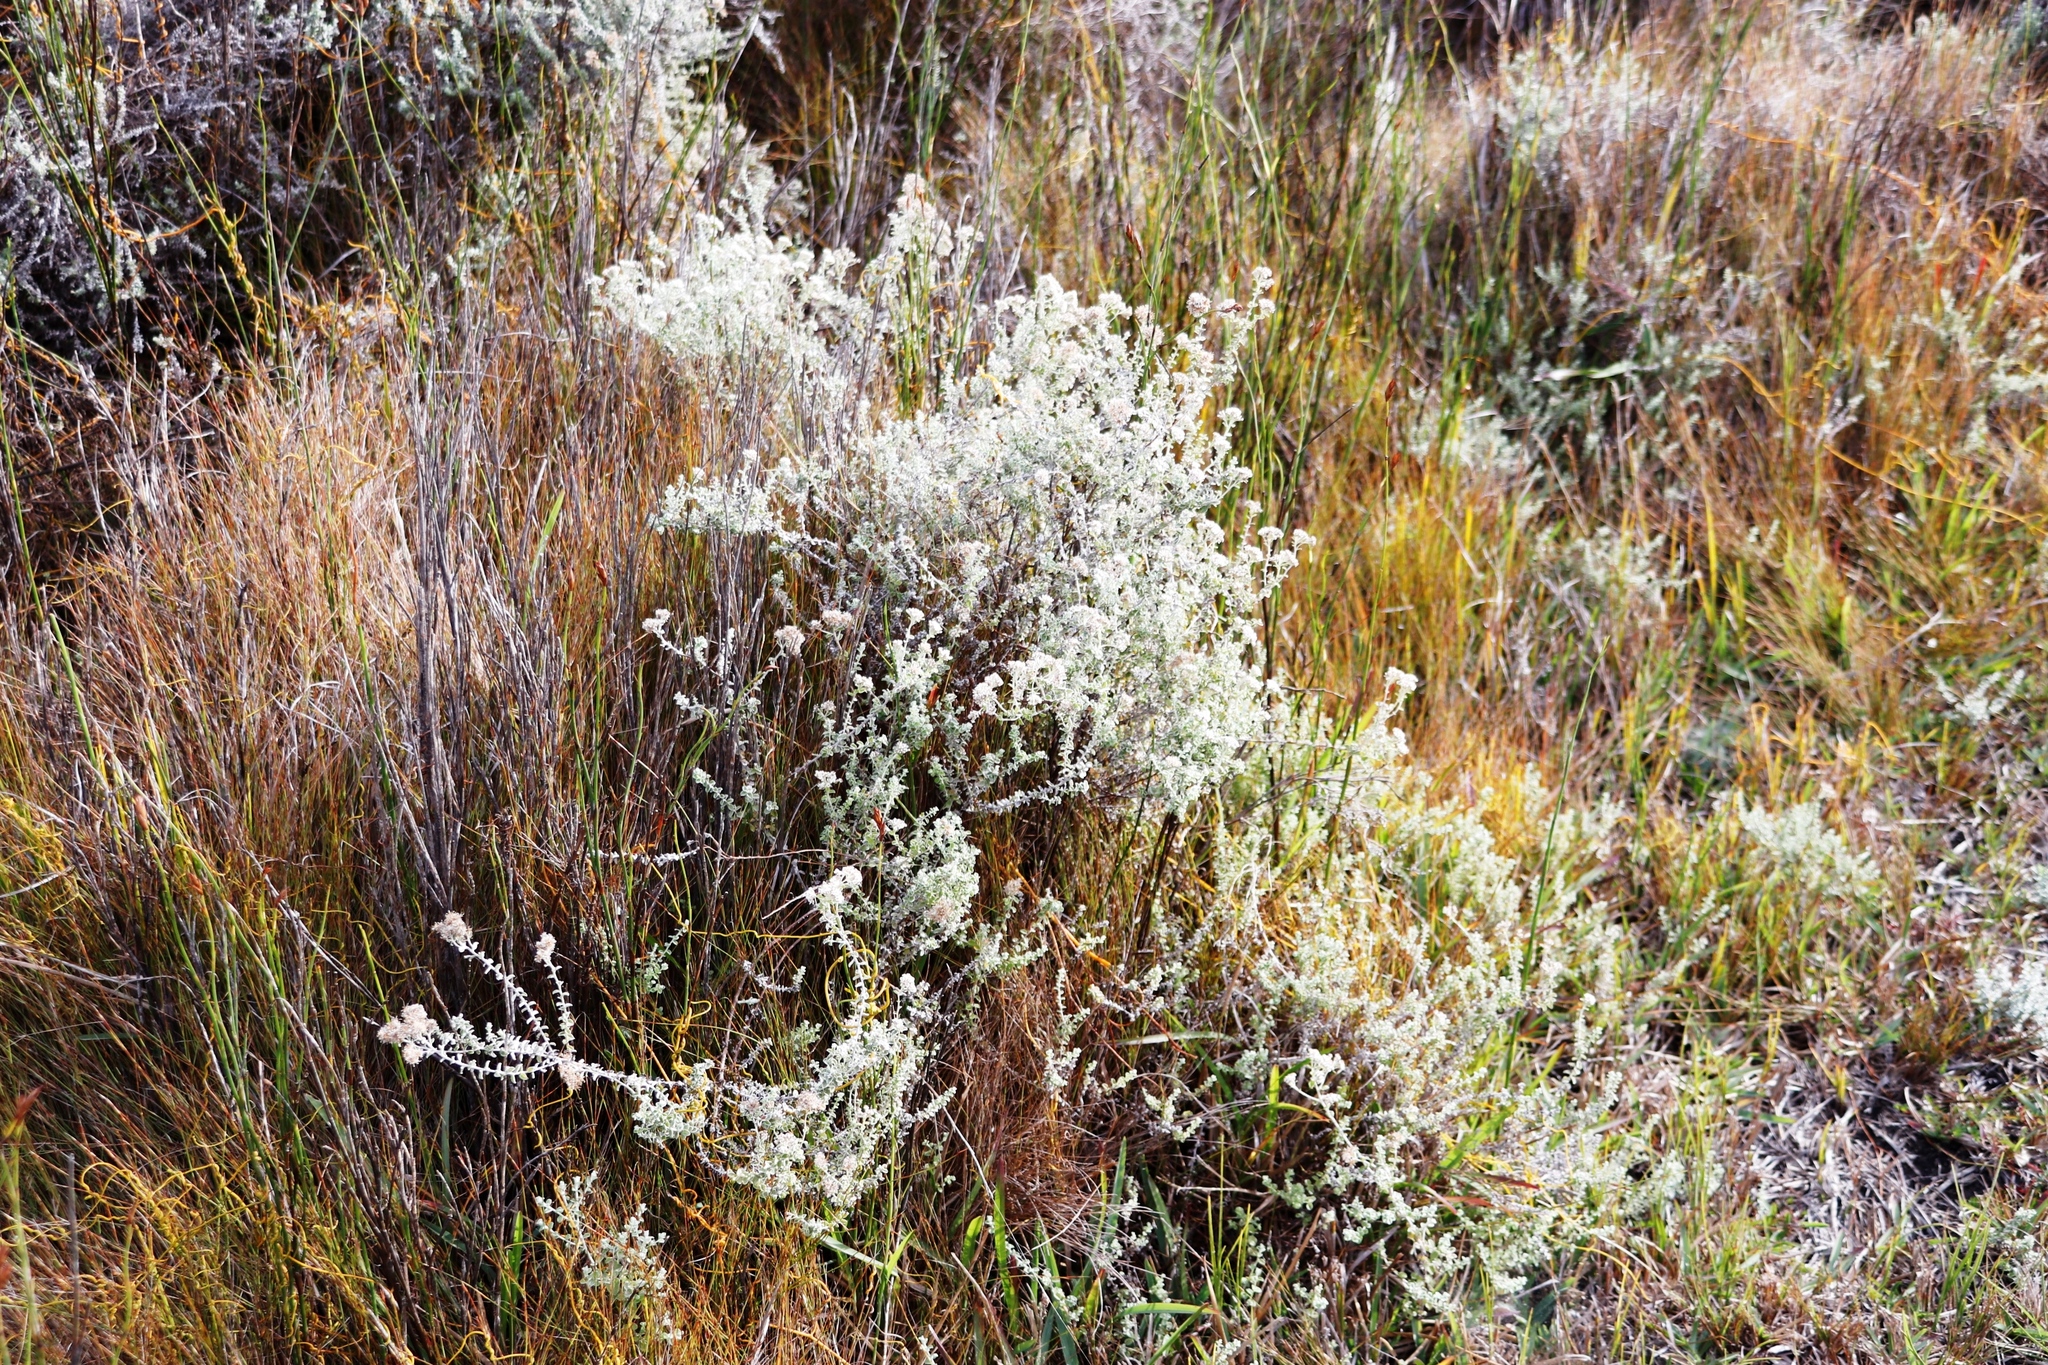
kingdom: Plantae
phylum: Tracheophyta
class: Magnoliopsida
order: Asterales
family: Asteraceae
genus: Plecostachys
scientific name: Plecostachys serpyllifolia
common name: Petite licorice
